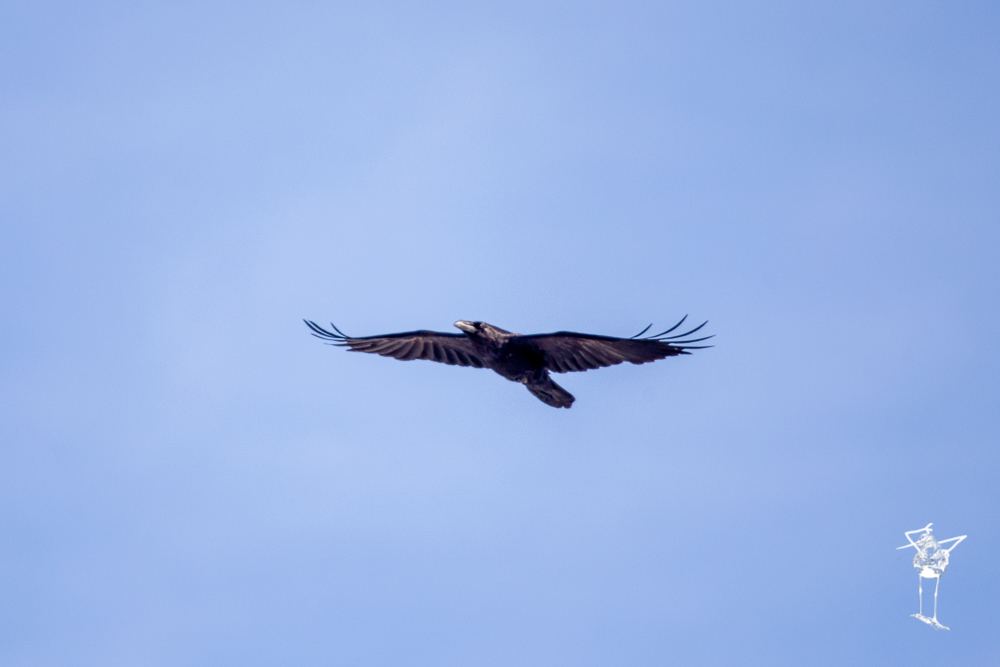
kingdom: Animalia
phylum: Chordata
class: Aves
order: Passeriformes
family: Corvidae
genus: Corvus
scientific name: Corvus corax
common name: Common raven
